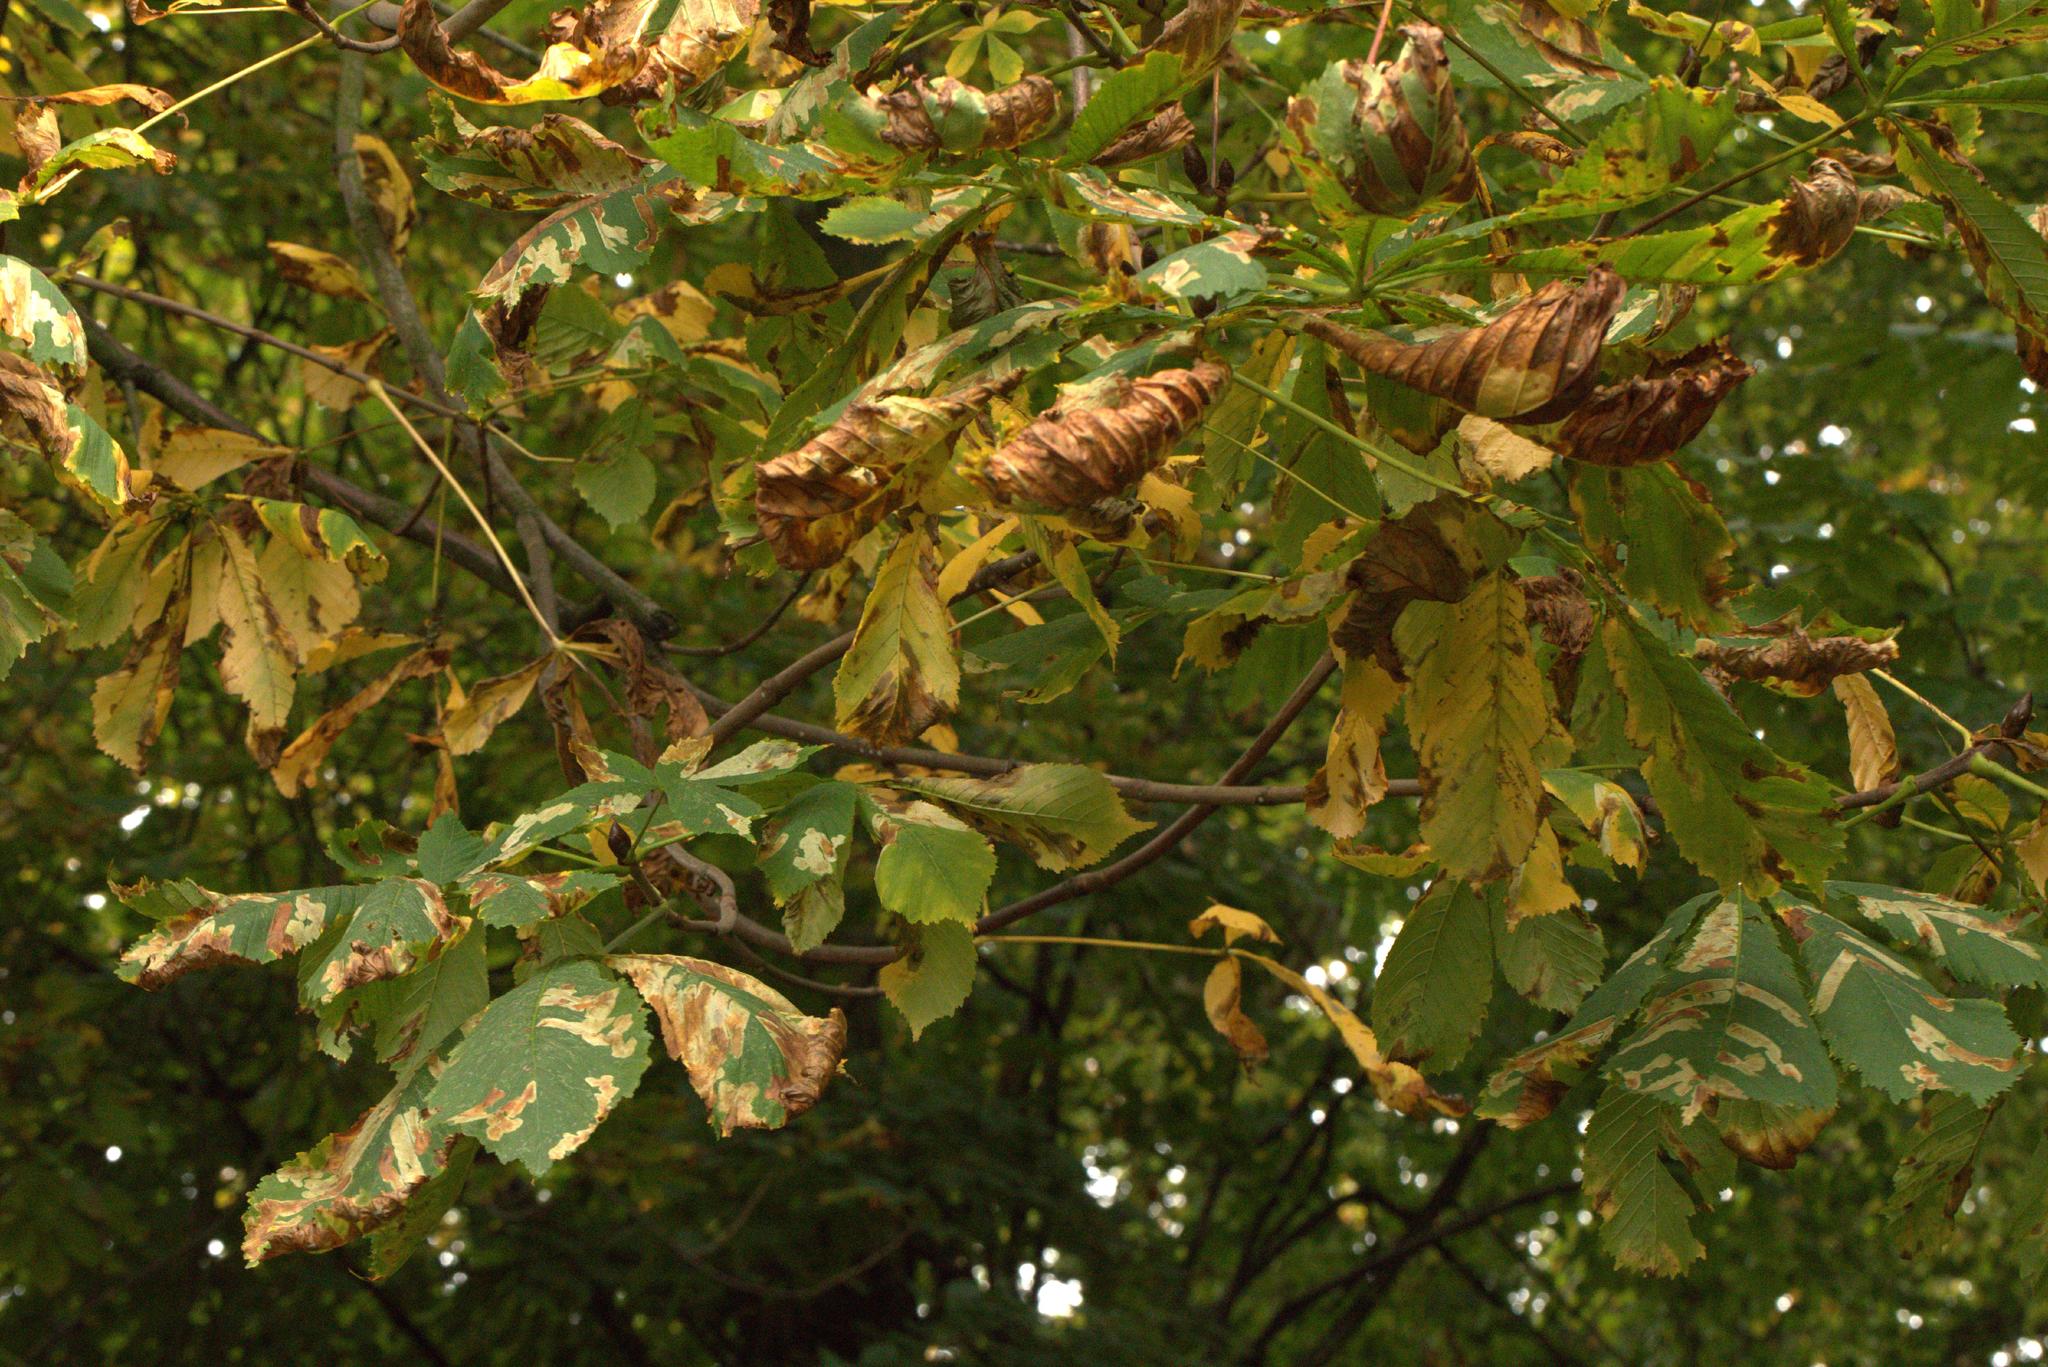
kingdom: Plantae
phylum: Tracheophyta
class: Magnoliopsida
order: Sapindales
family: Sapindaceae
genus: Aesculus
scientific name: Aesculus hippocastanum
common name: Horse-chestnut
